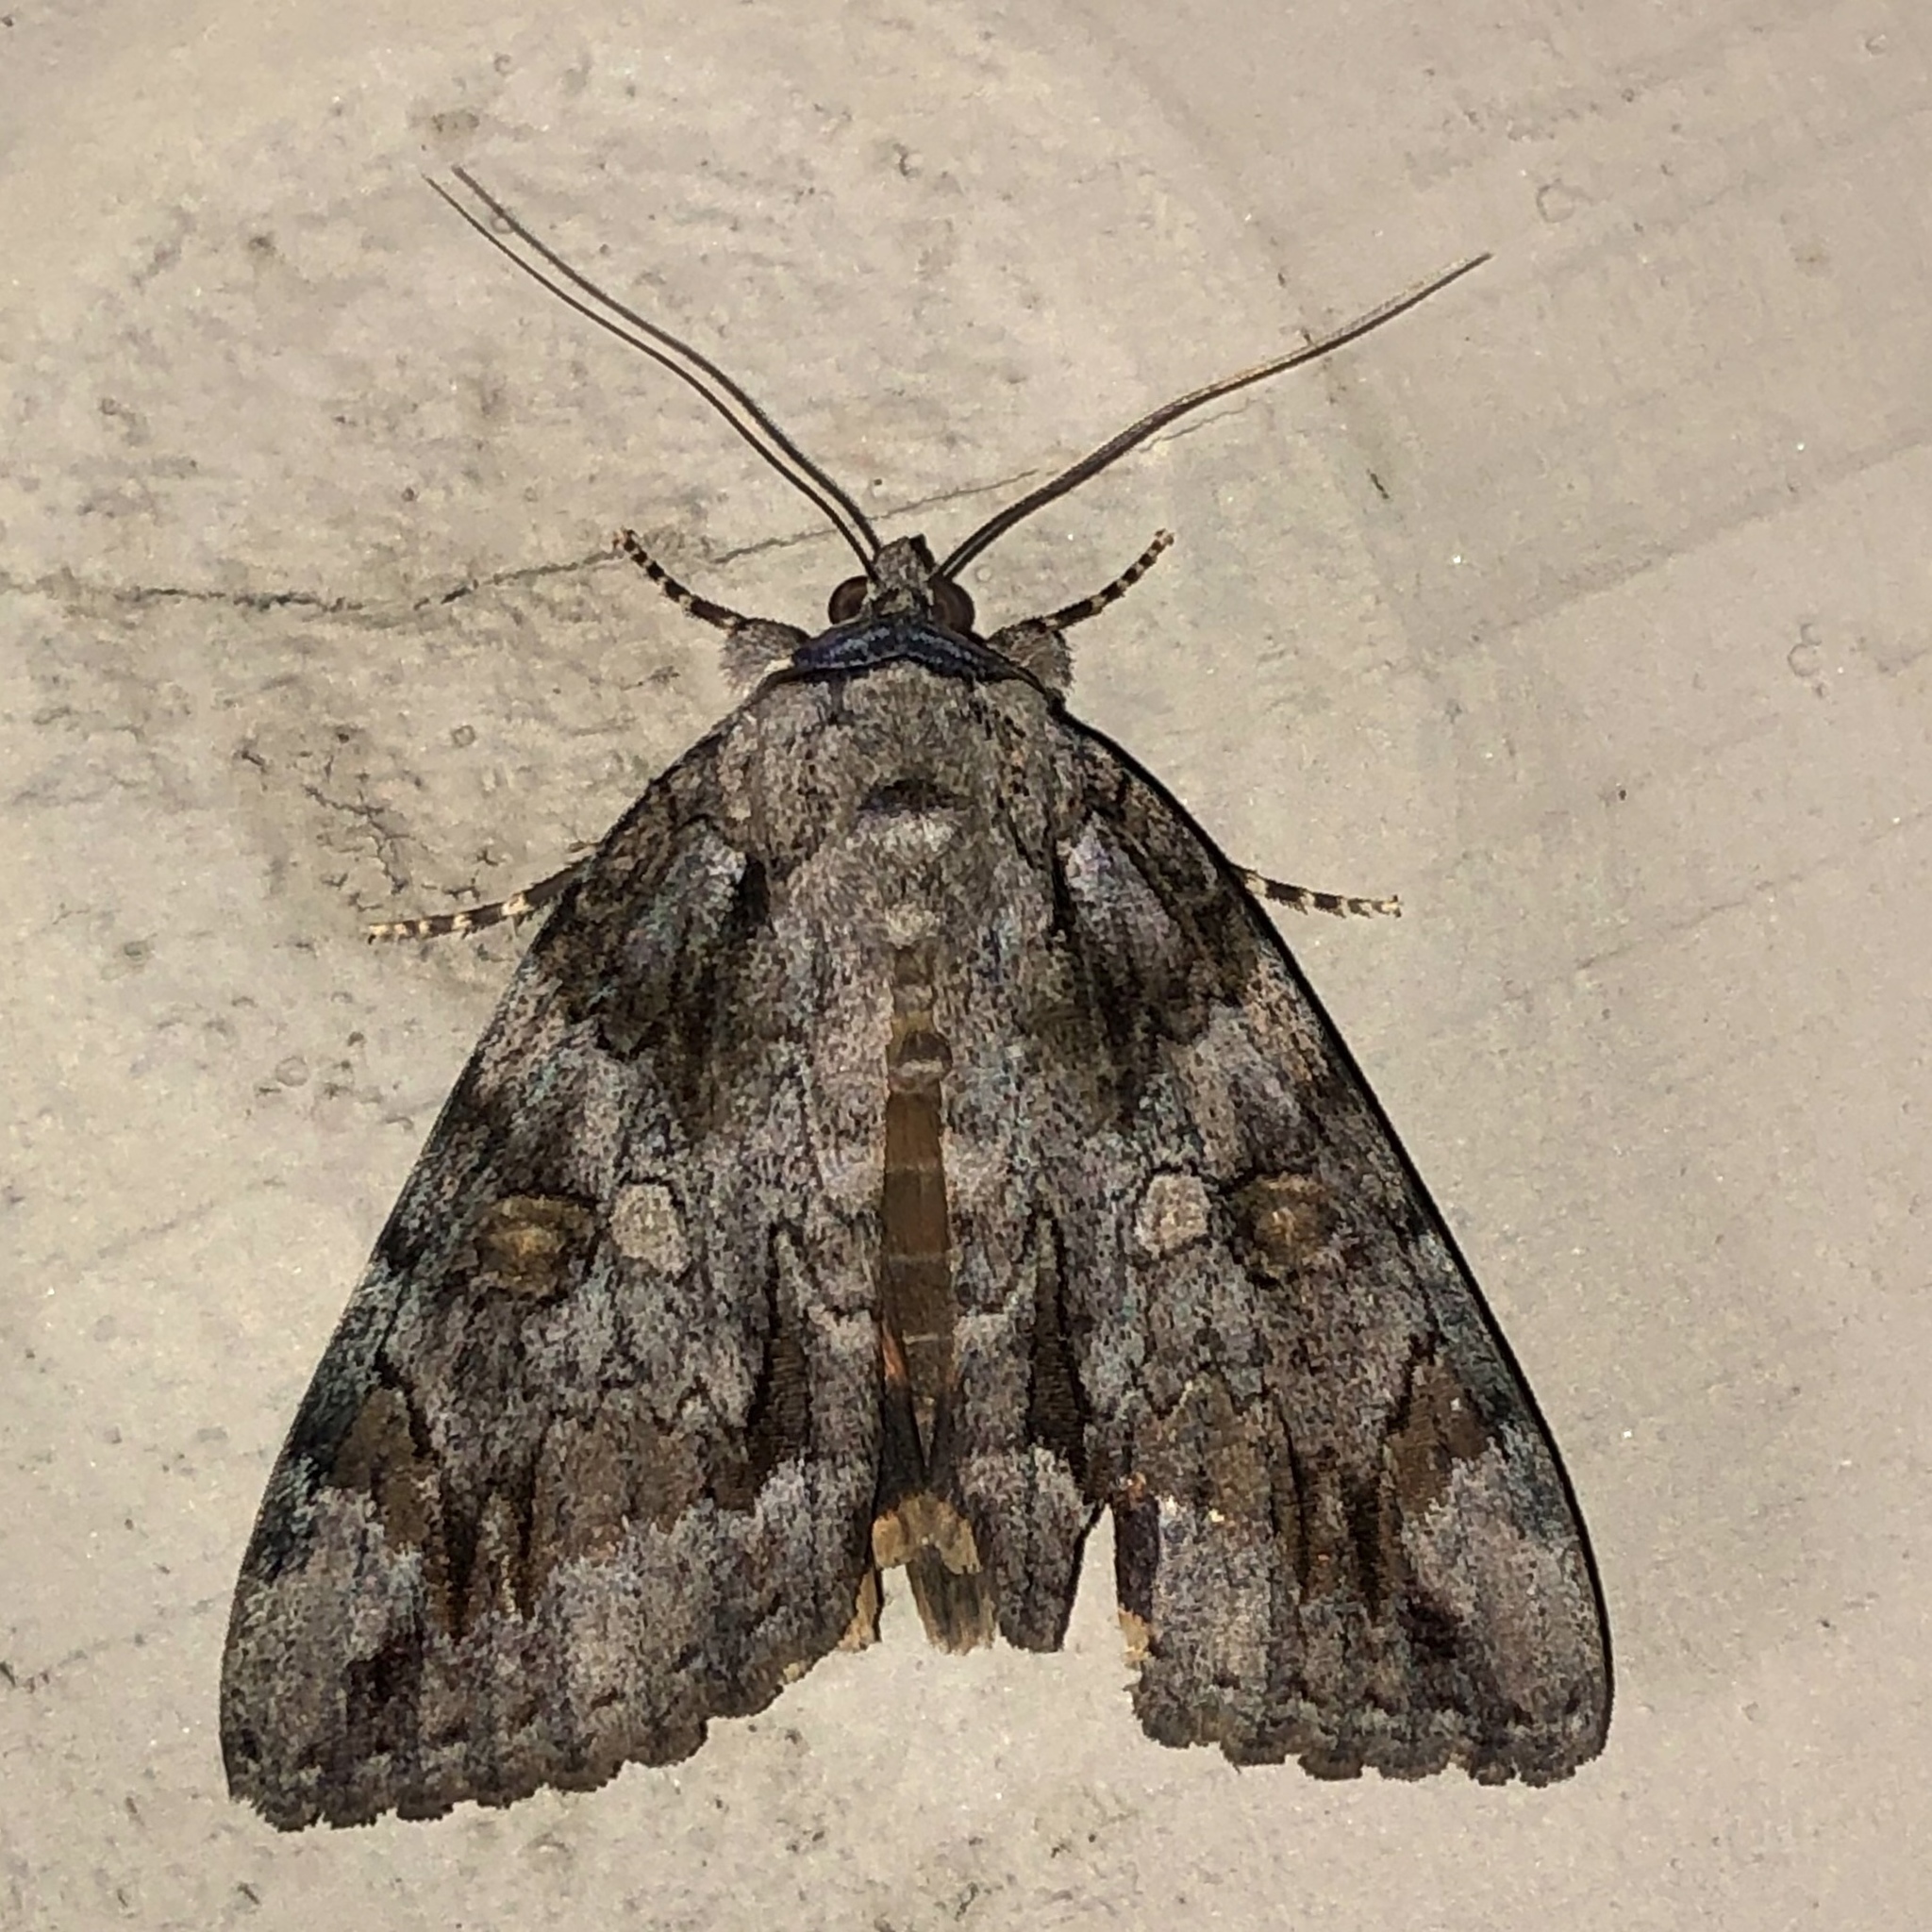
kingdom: Animalia
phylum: Arthropoda
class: Insecta
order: Lepidoptera
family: Erebidae
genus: Catocala
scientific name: Catocala neogama
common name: Bride underwing
